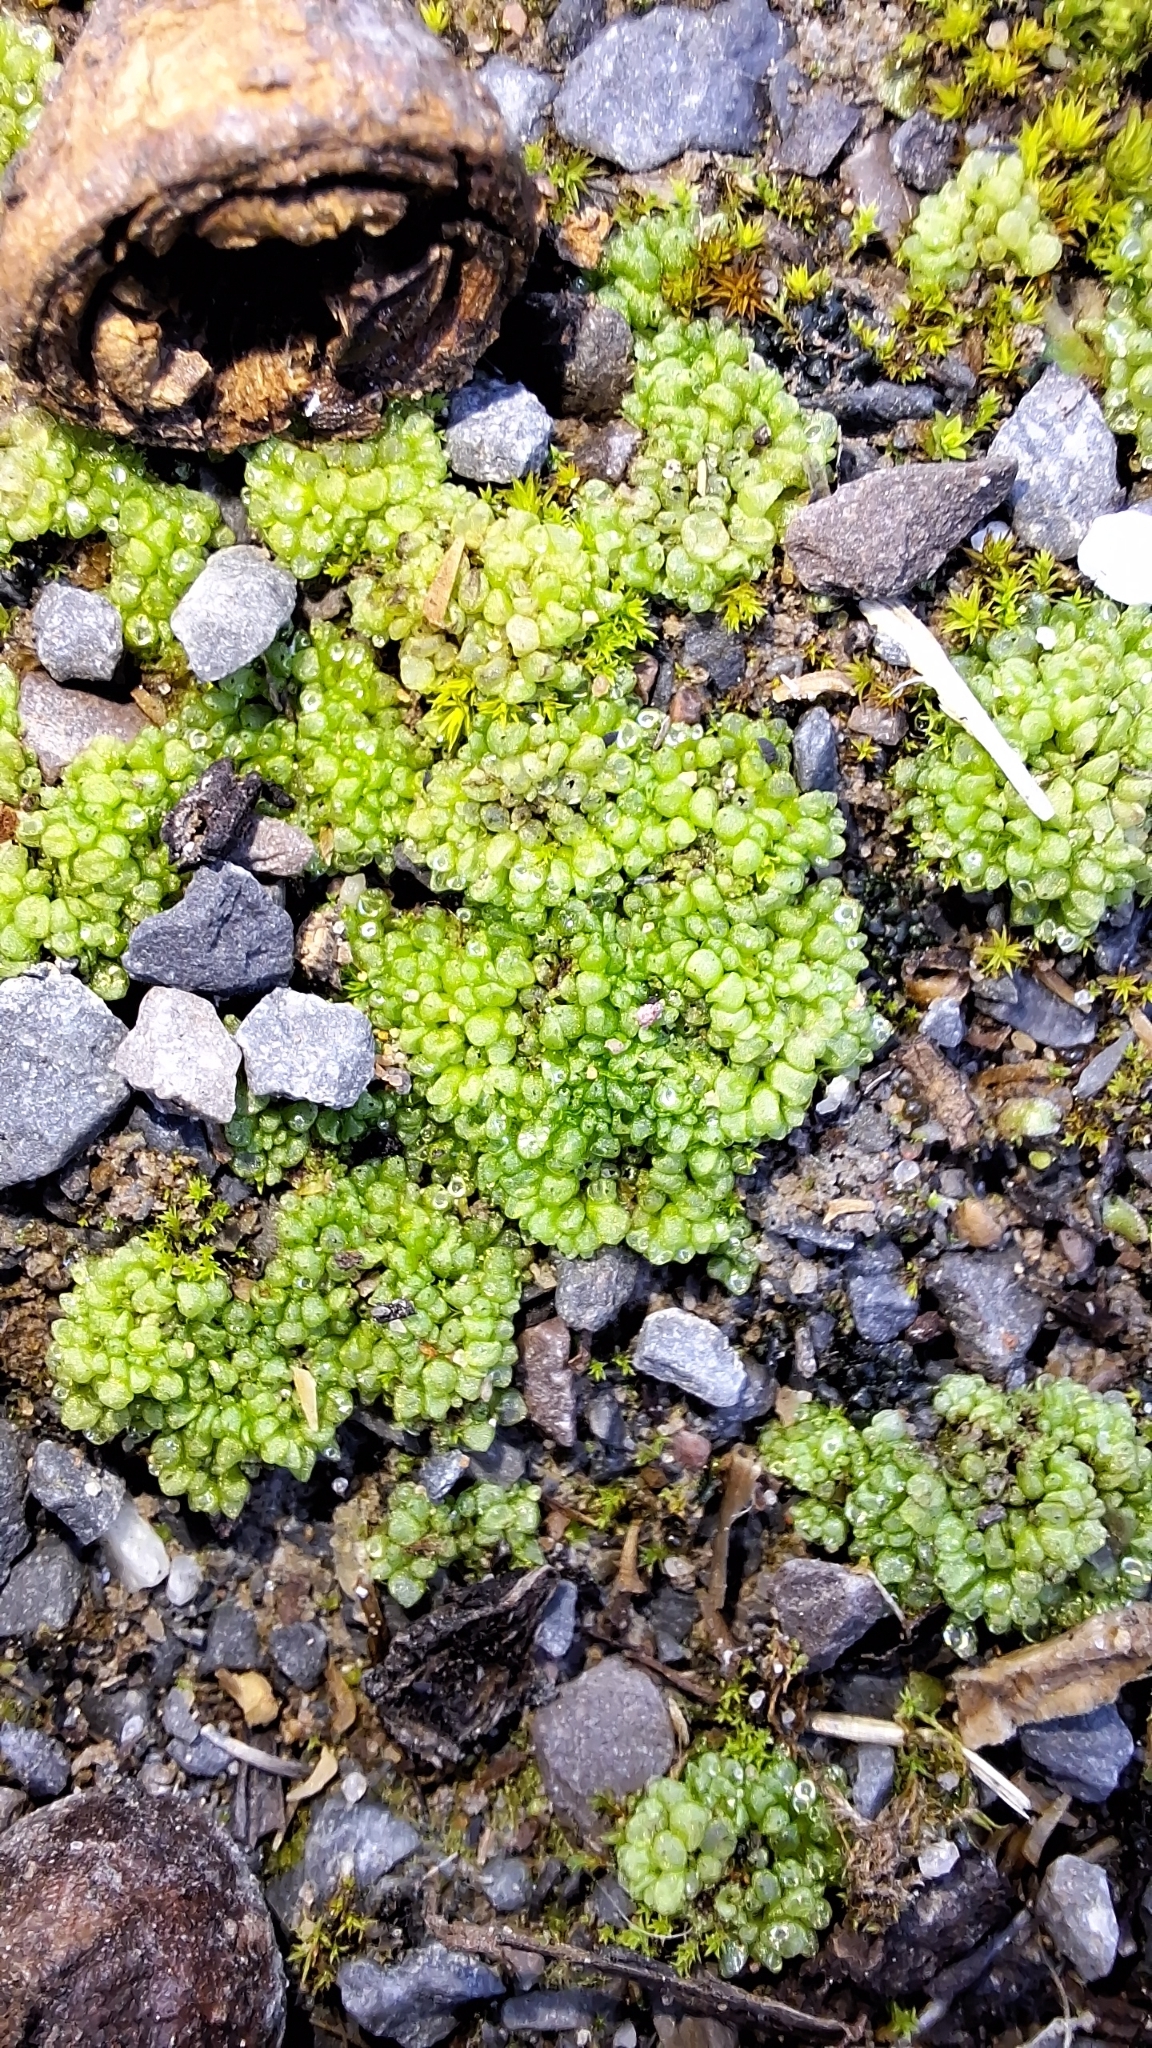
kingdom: Plantae
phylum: Marchantiophyta
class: Marchantiopsida
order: Sphaerocarpales
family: Sphaerocarpaceae
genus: Sphaerocarpos
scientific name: Sphaerocarpos texanus
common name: Texas balloonwort
